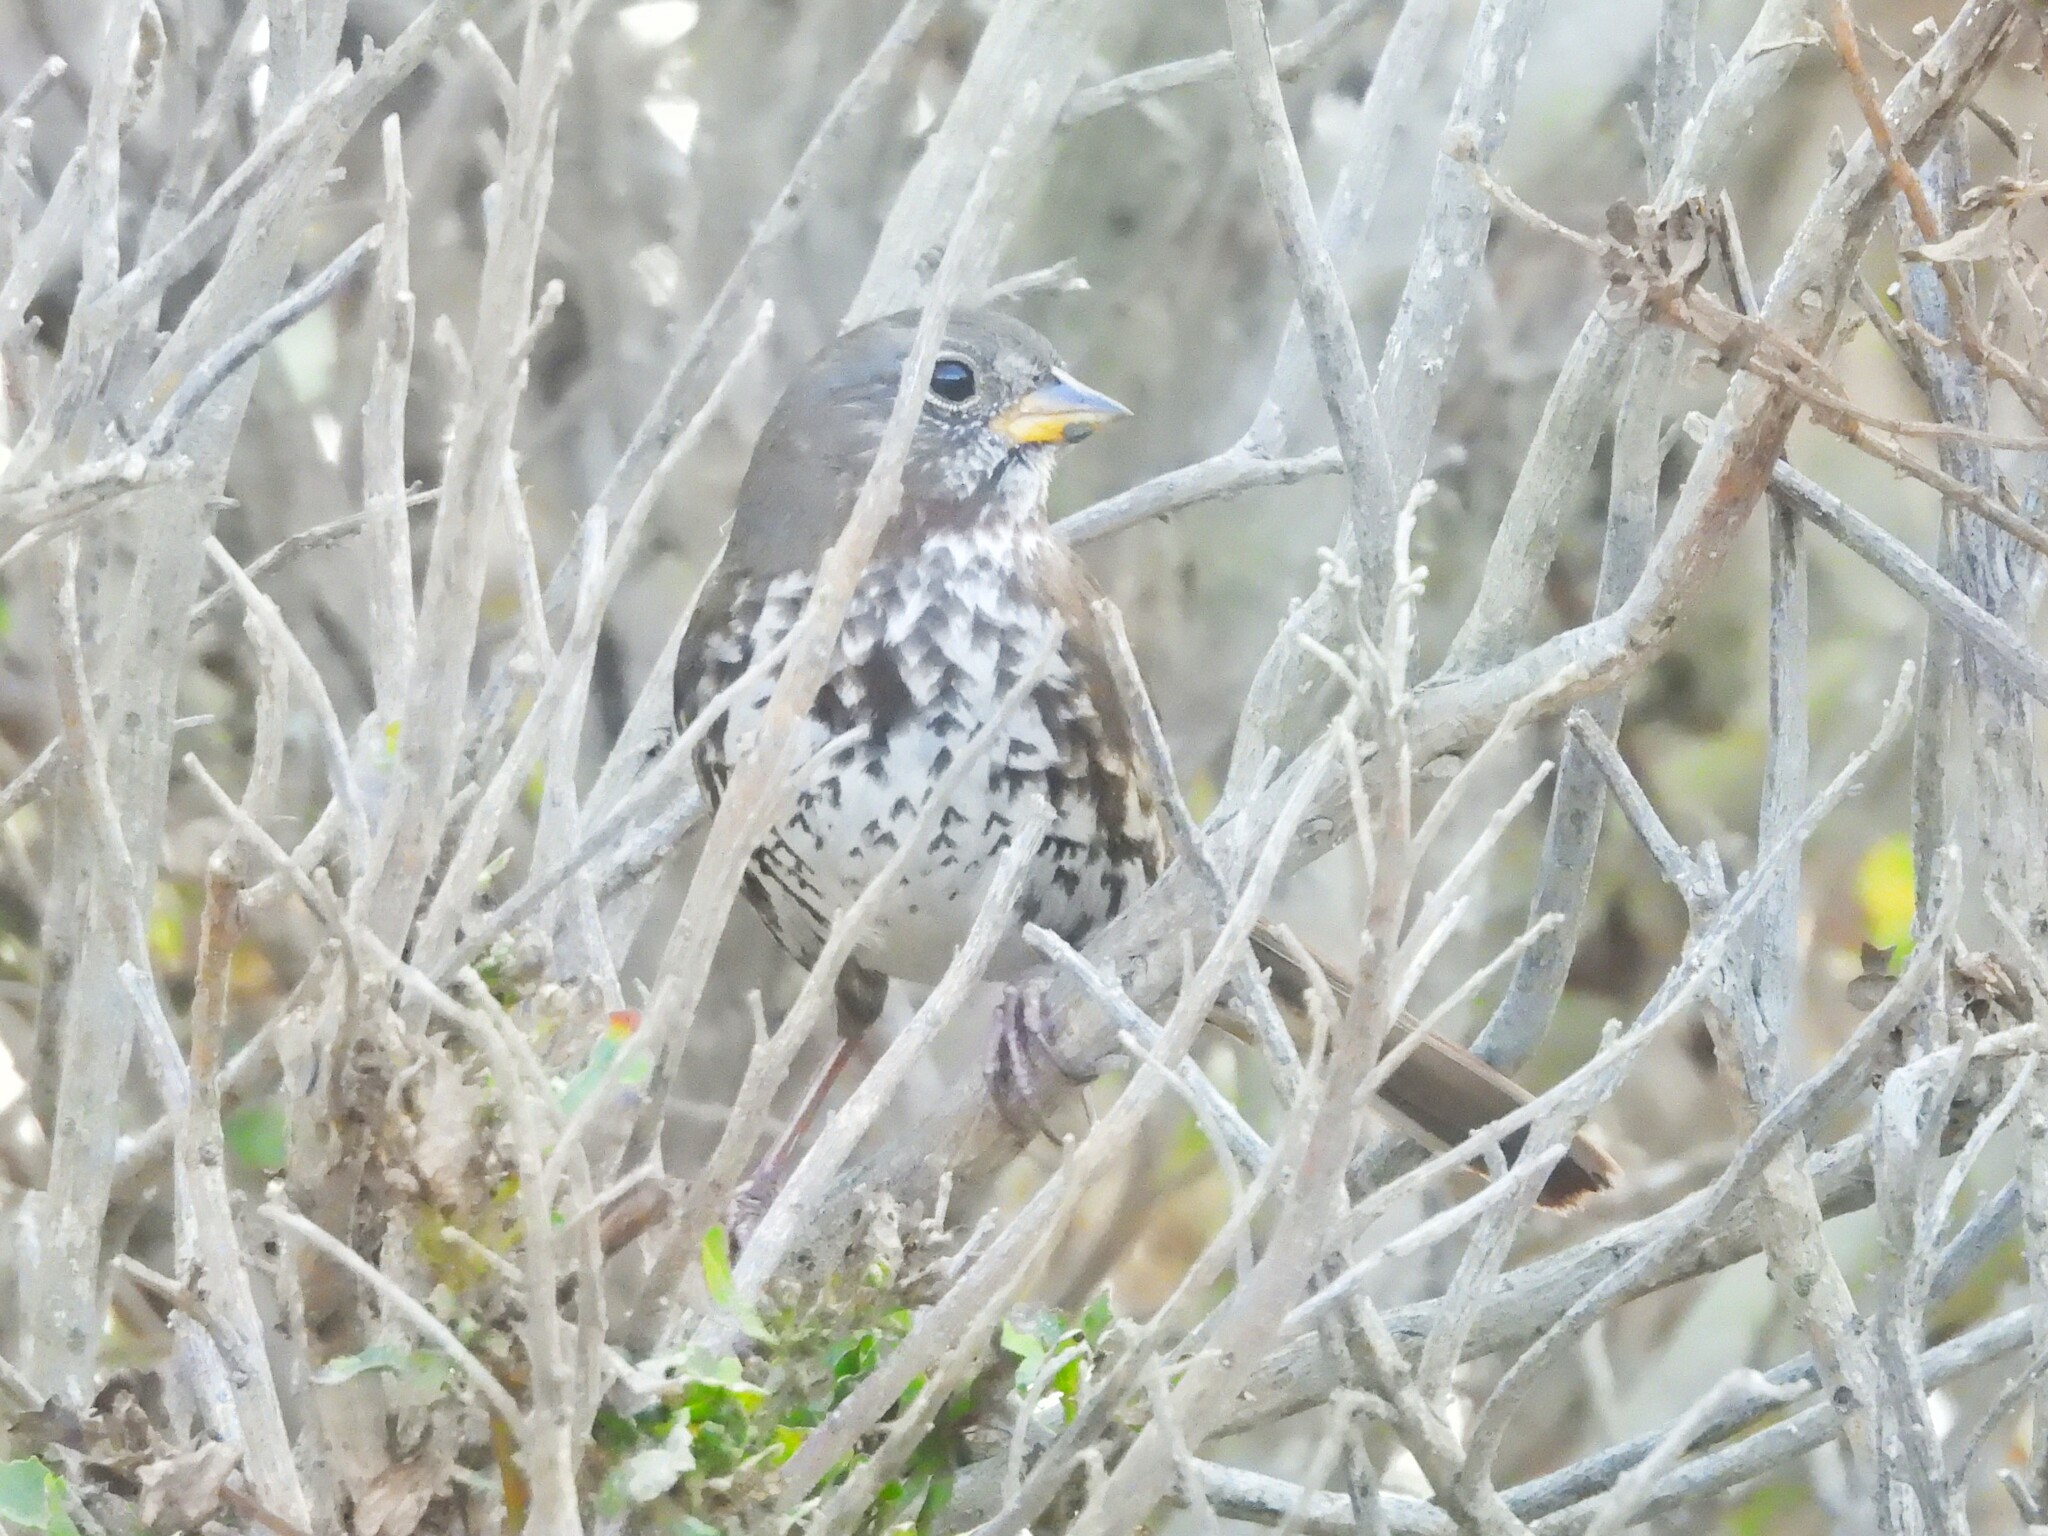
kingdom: Animalia
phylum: Chordata
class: Aves
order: Passeriformes
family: Passerellidae
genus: Passerella
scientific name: Passerella iliaca
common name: Fox sparrow
